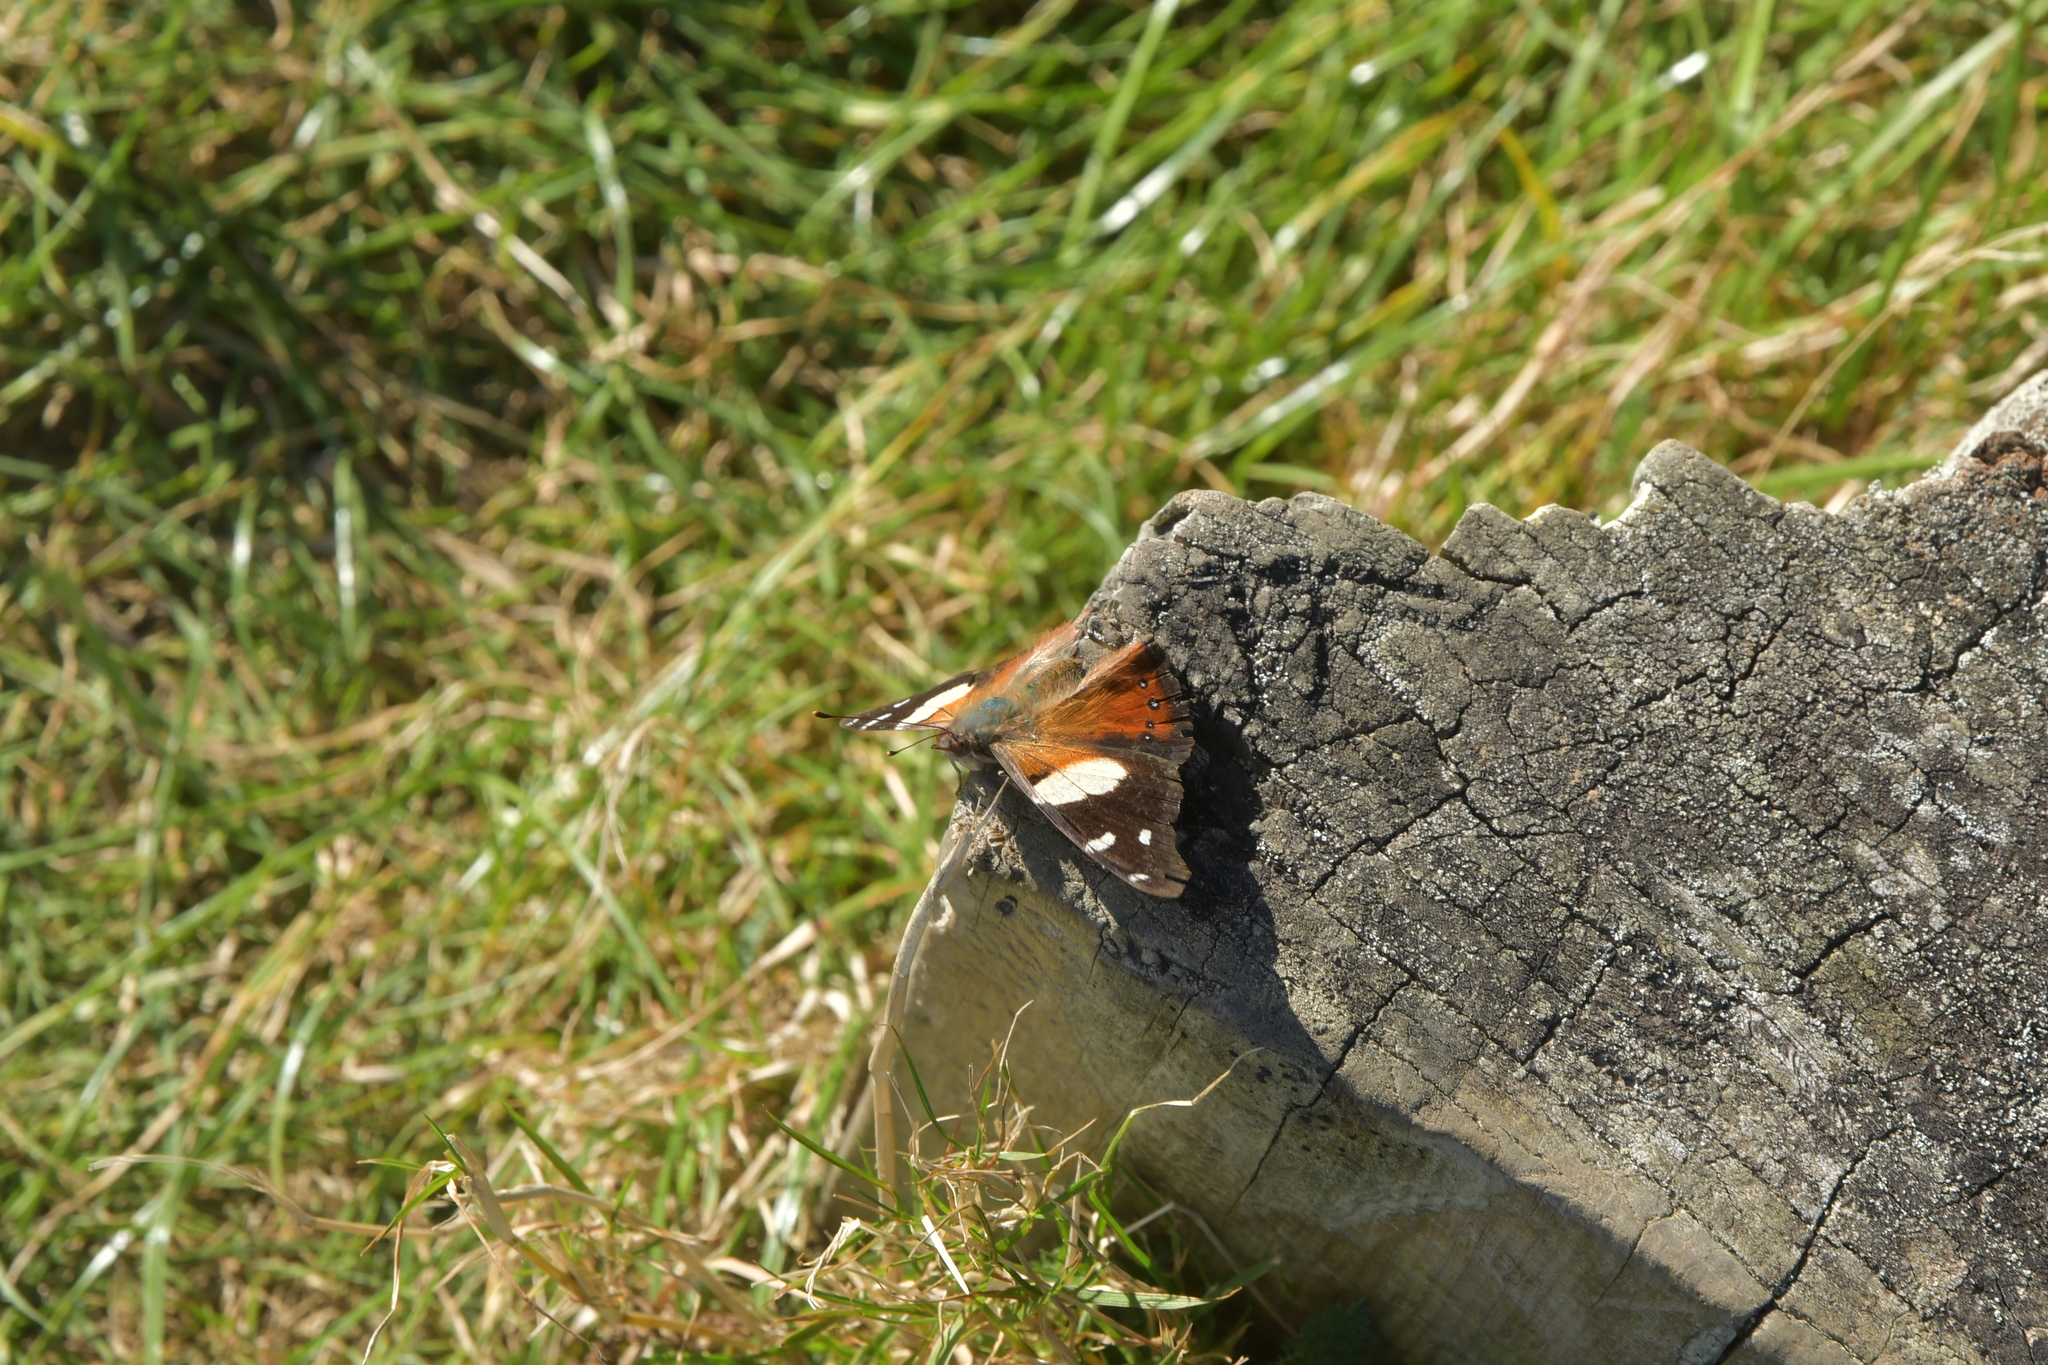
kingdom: Animalia
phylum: Arthropoda
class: Insecta
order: Lepidoptera
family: Nymphalidae
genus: Vanessa
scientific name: Vanessa itea
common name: Yellow admiral
